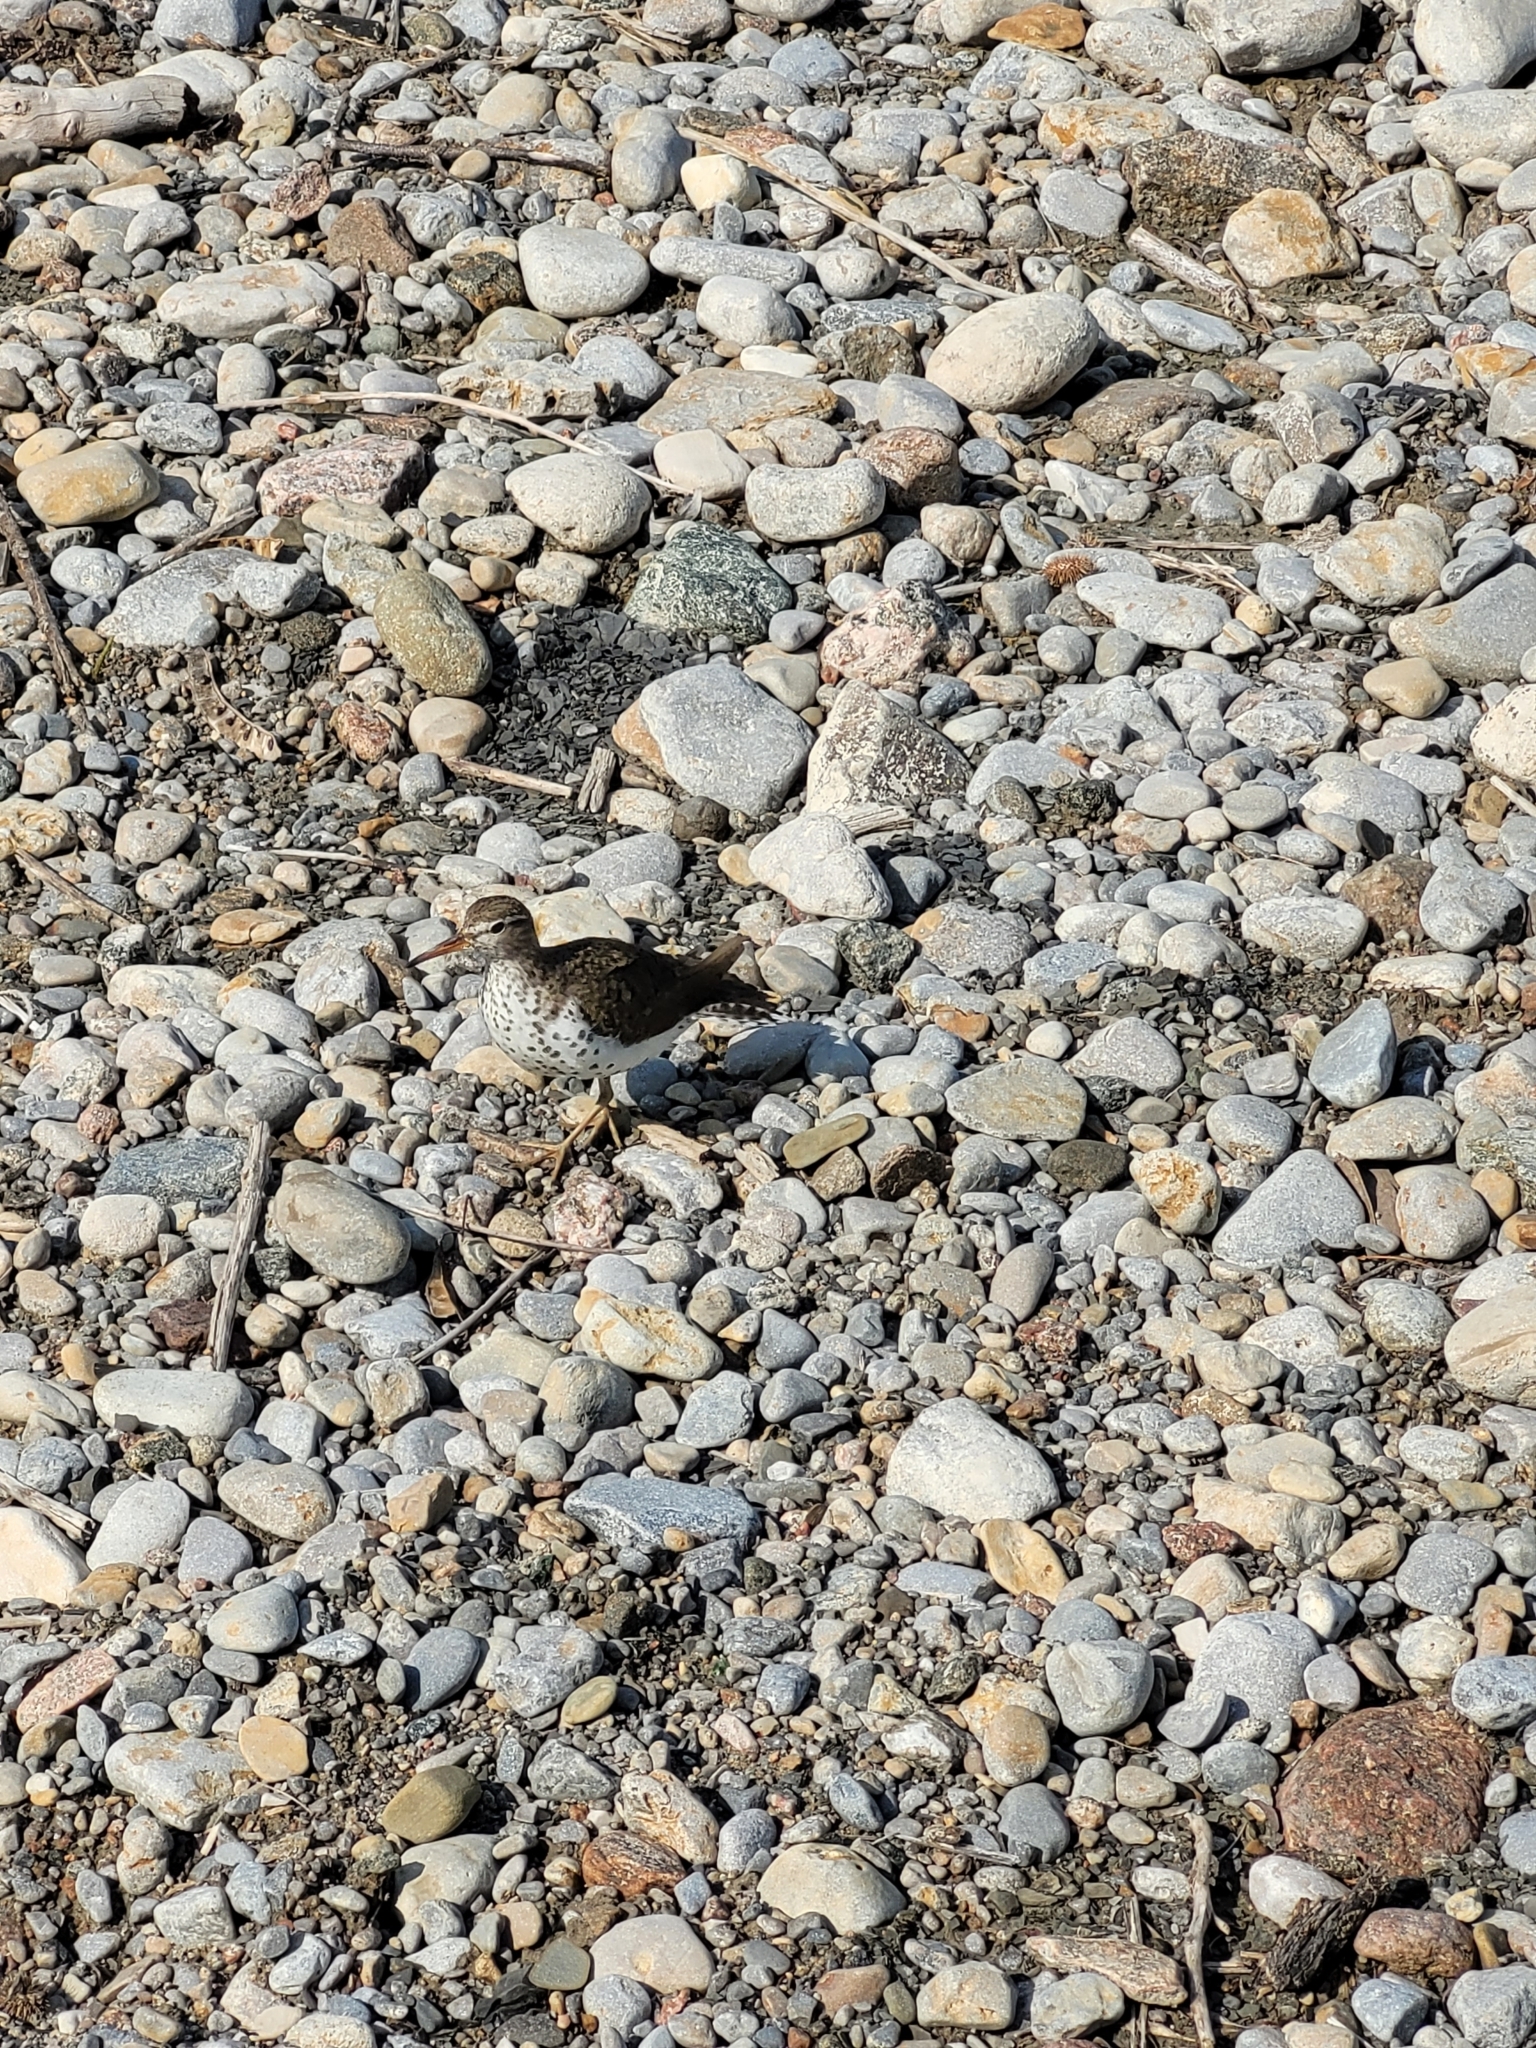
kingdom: Animalia
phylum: Chordata
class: Aves
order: Charadriiformes
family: Scolopacidae
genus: Actitis
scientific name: Actitis macularius
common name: Spotted sandpiper
